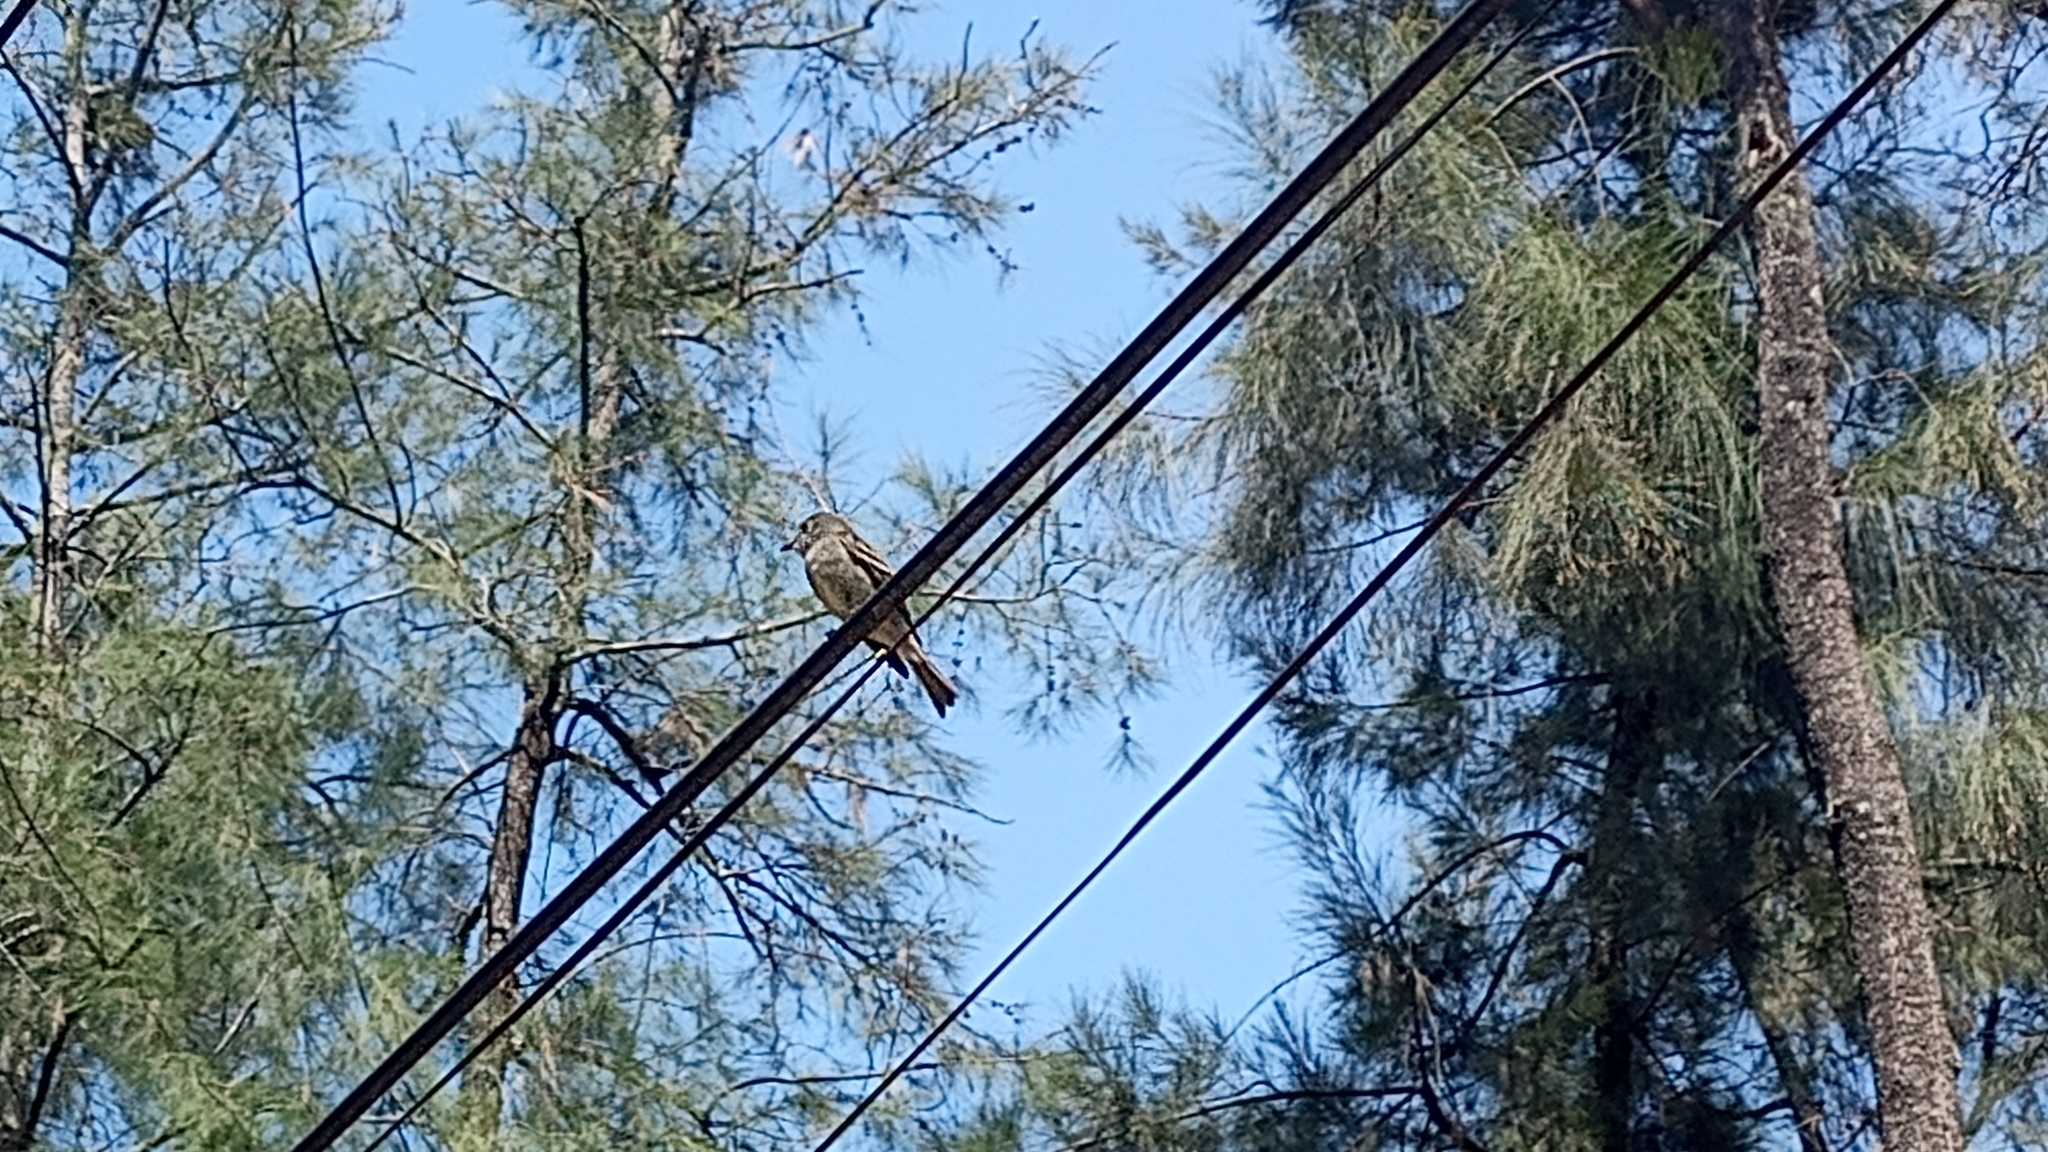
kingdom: Animalia
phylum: Chordata
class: Aves
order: Passeriformes
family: Tyrannidae
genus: Empidonax
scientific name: Empidonax hammondii
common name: Hammond's flycatcher
